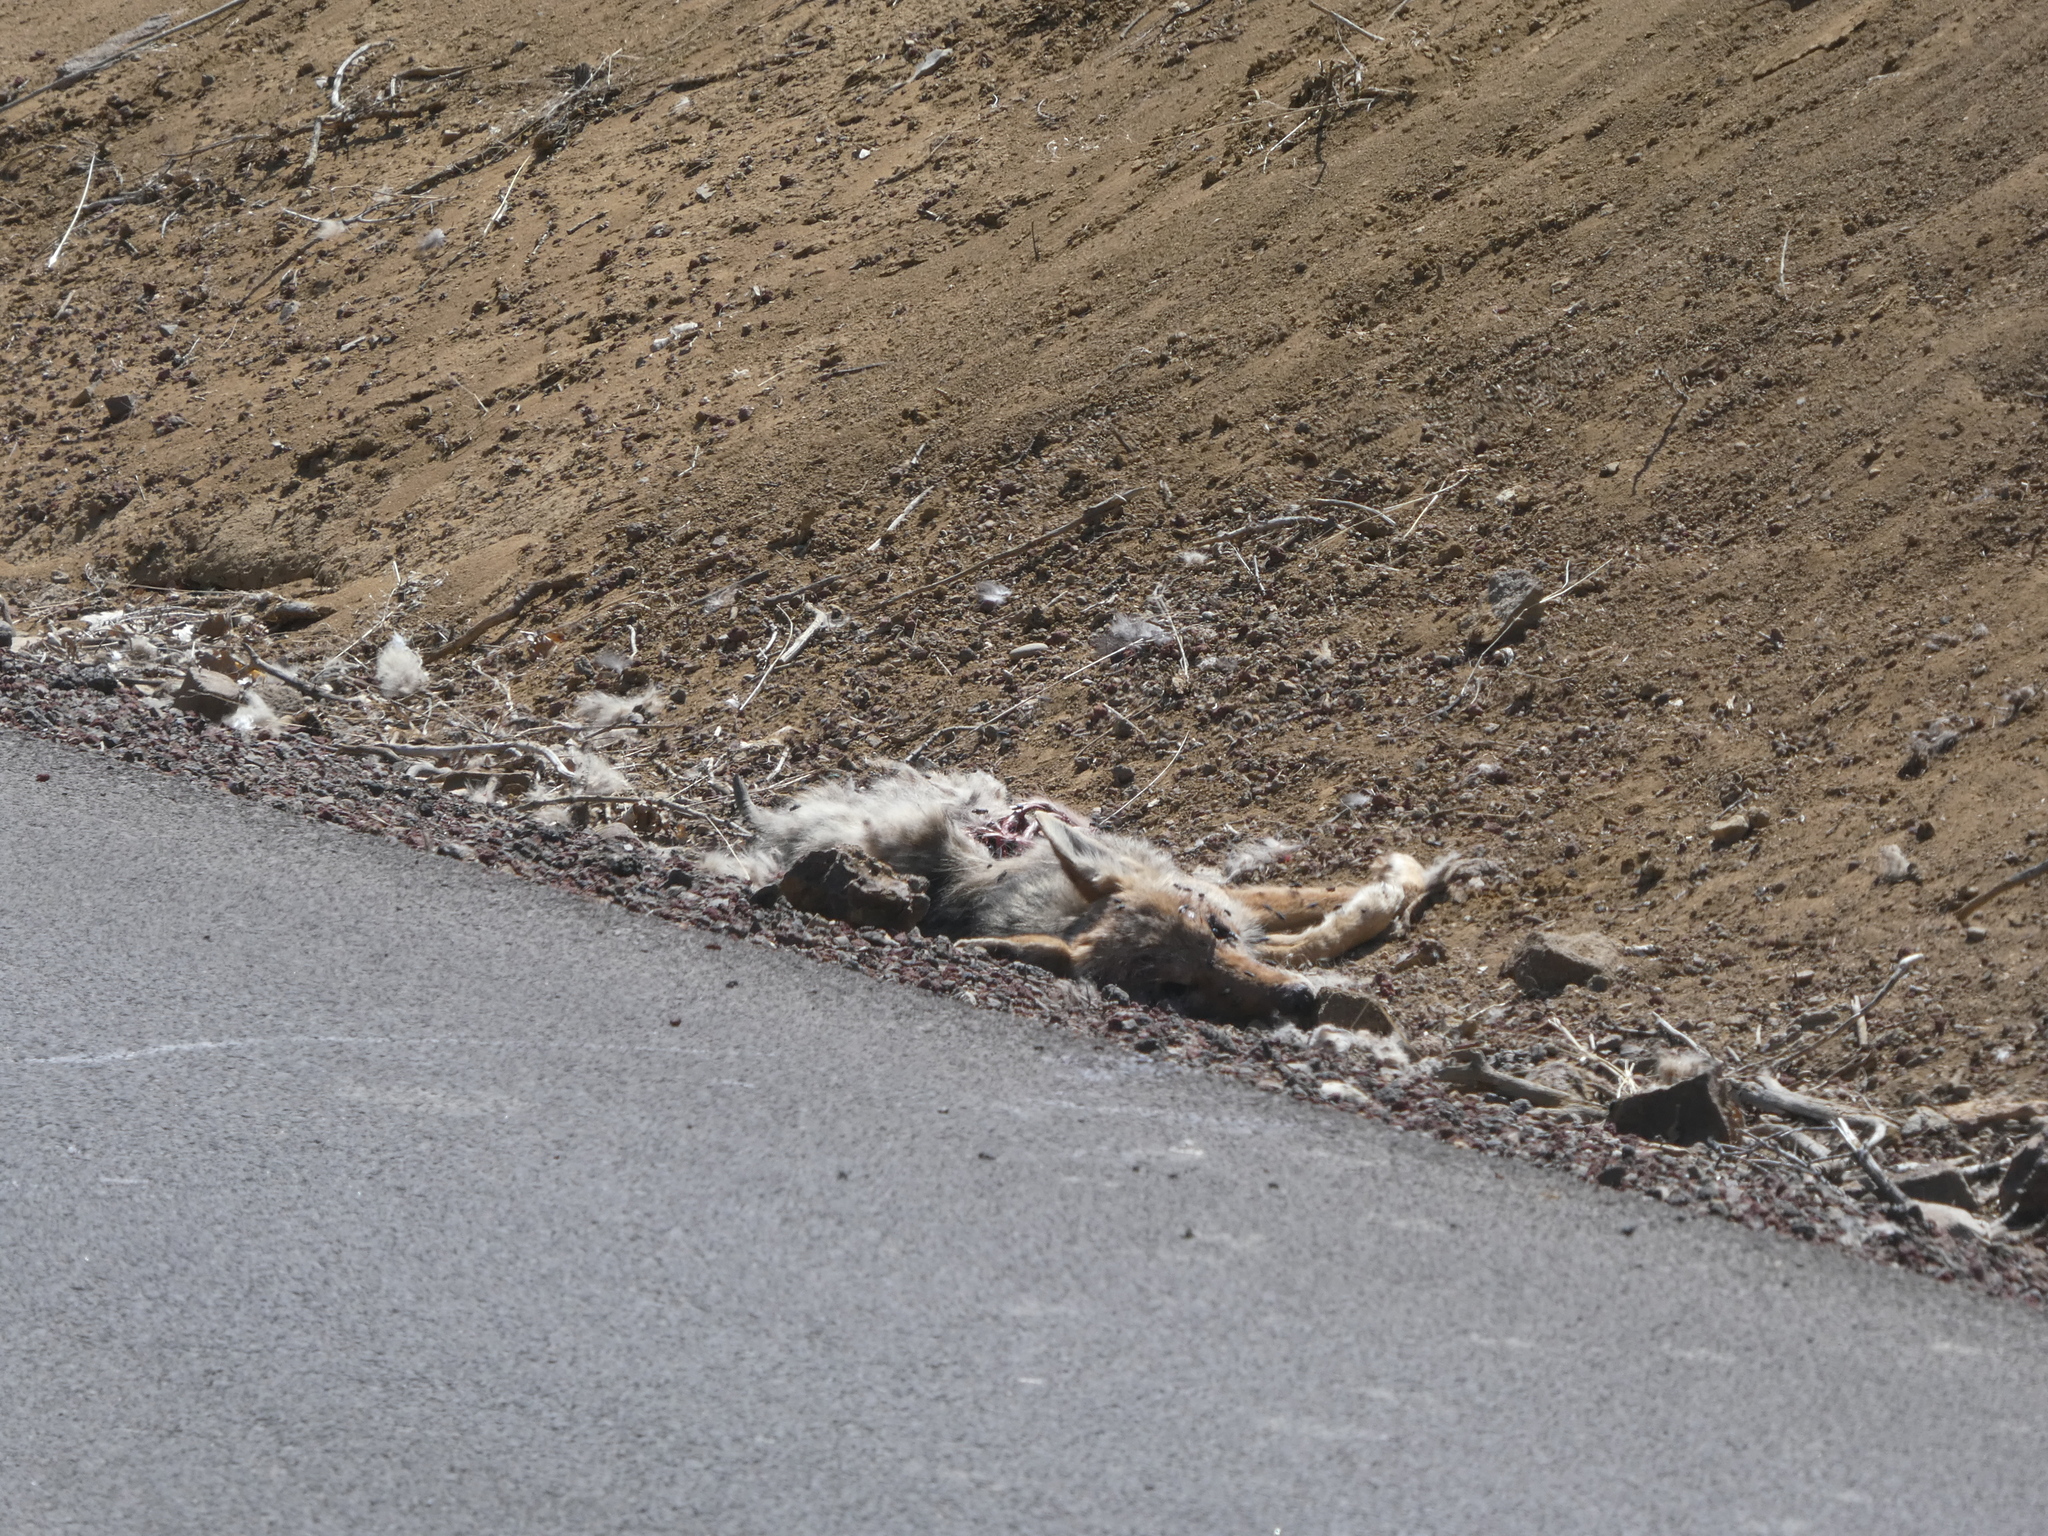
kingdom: Animalia
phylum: Chordata
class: Mammalia
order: Carnivora
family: Canidae
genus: Canis
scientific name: Canis latrans
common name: Coyote
